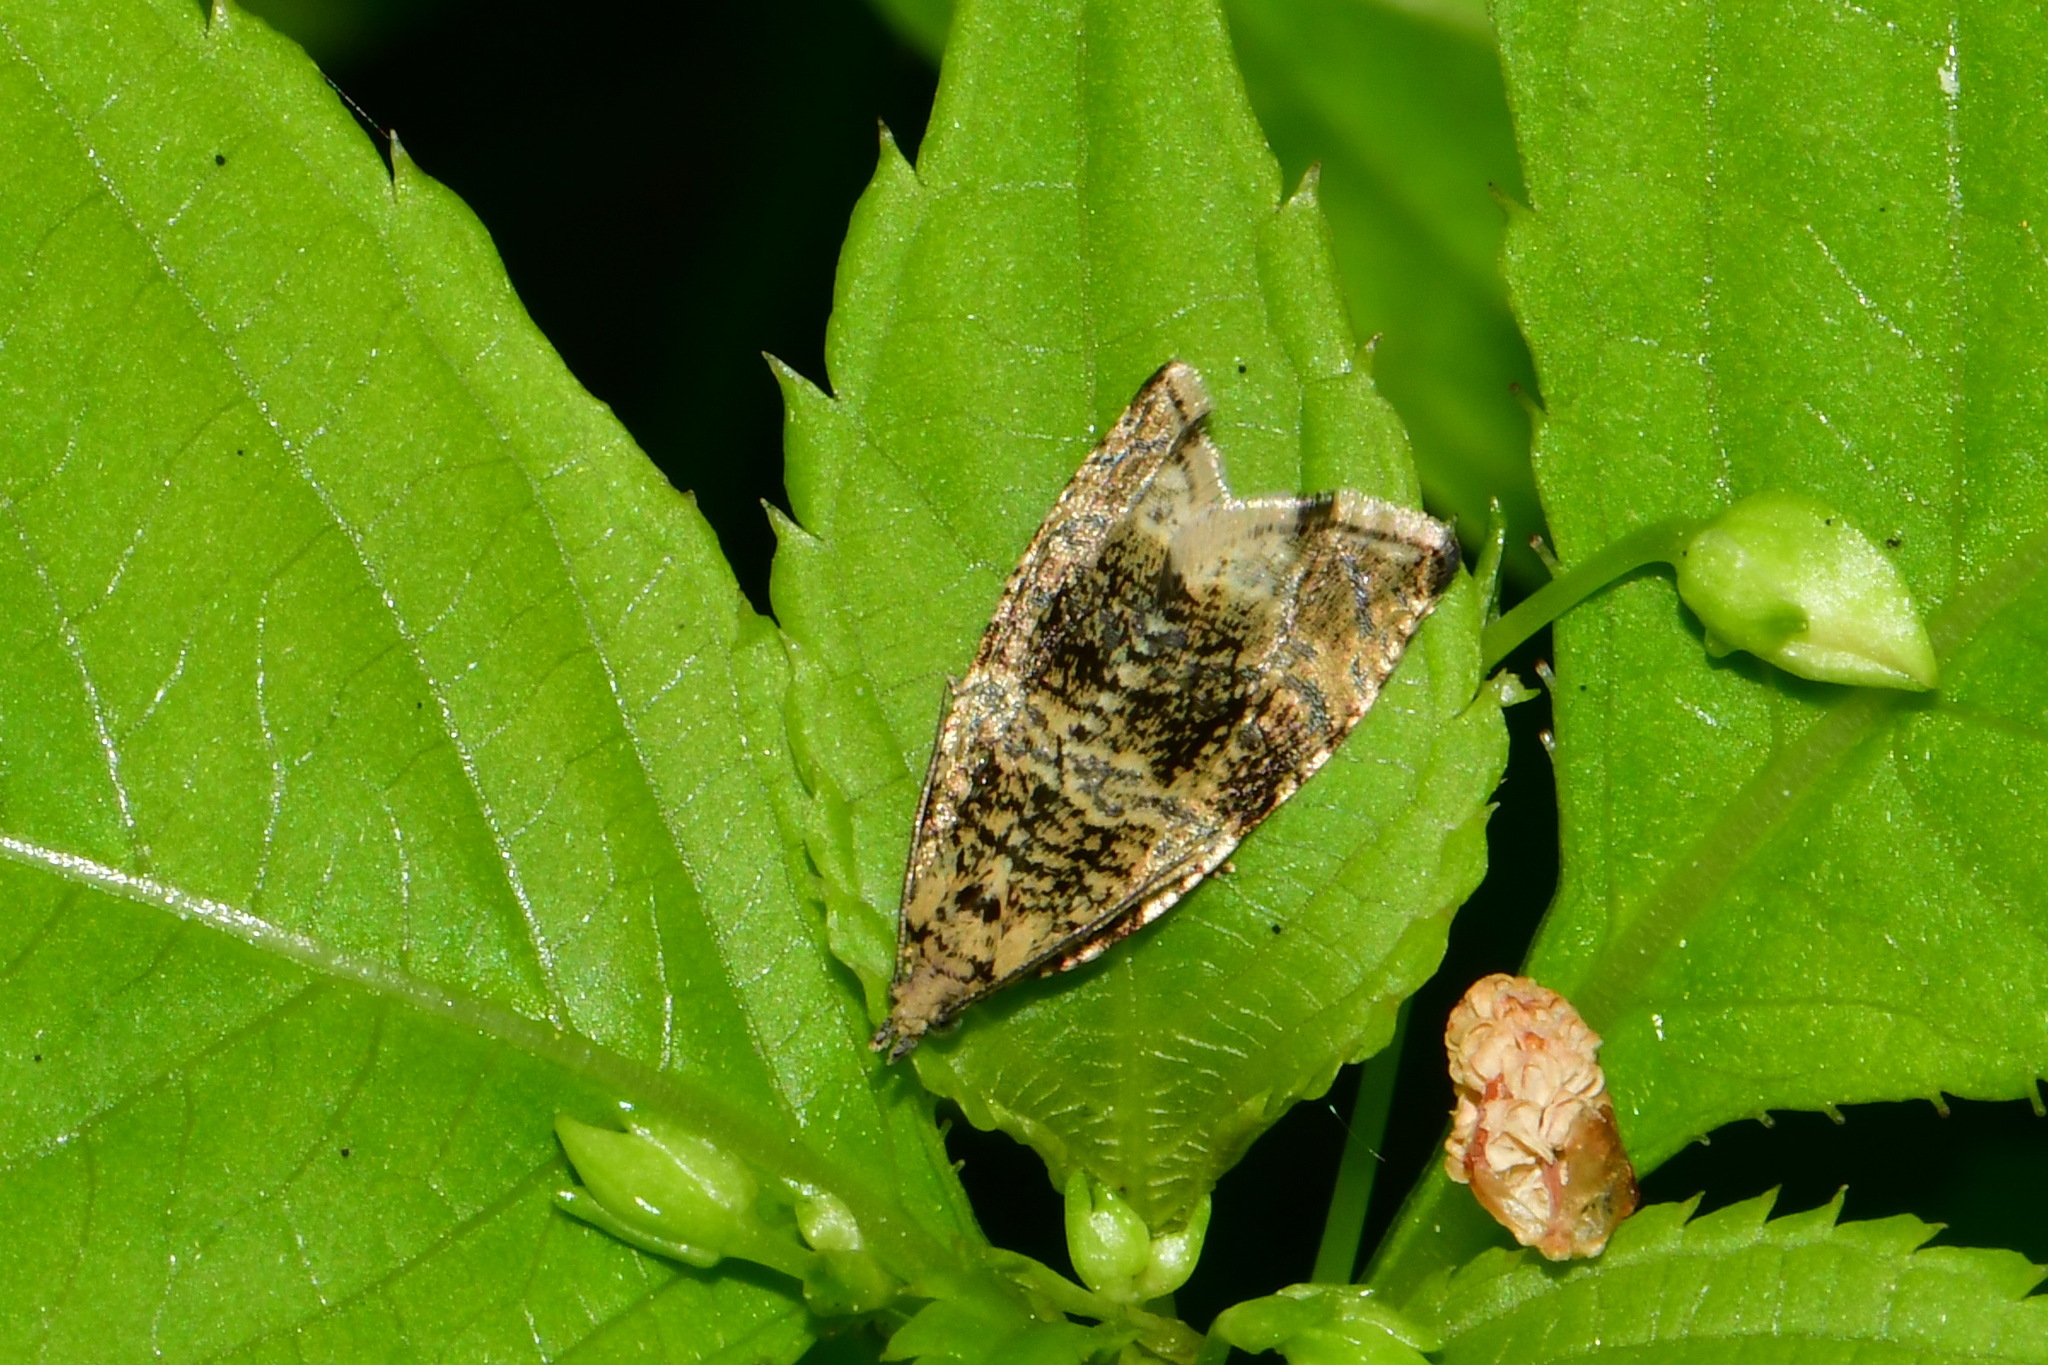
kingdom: Animalia
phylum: Arthropoda
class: Insecta
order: Lepidoptera
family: Tortricidae
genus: Syricoris
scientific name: Syricoris lacunana
